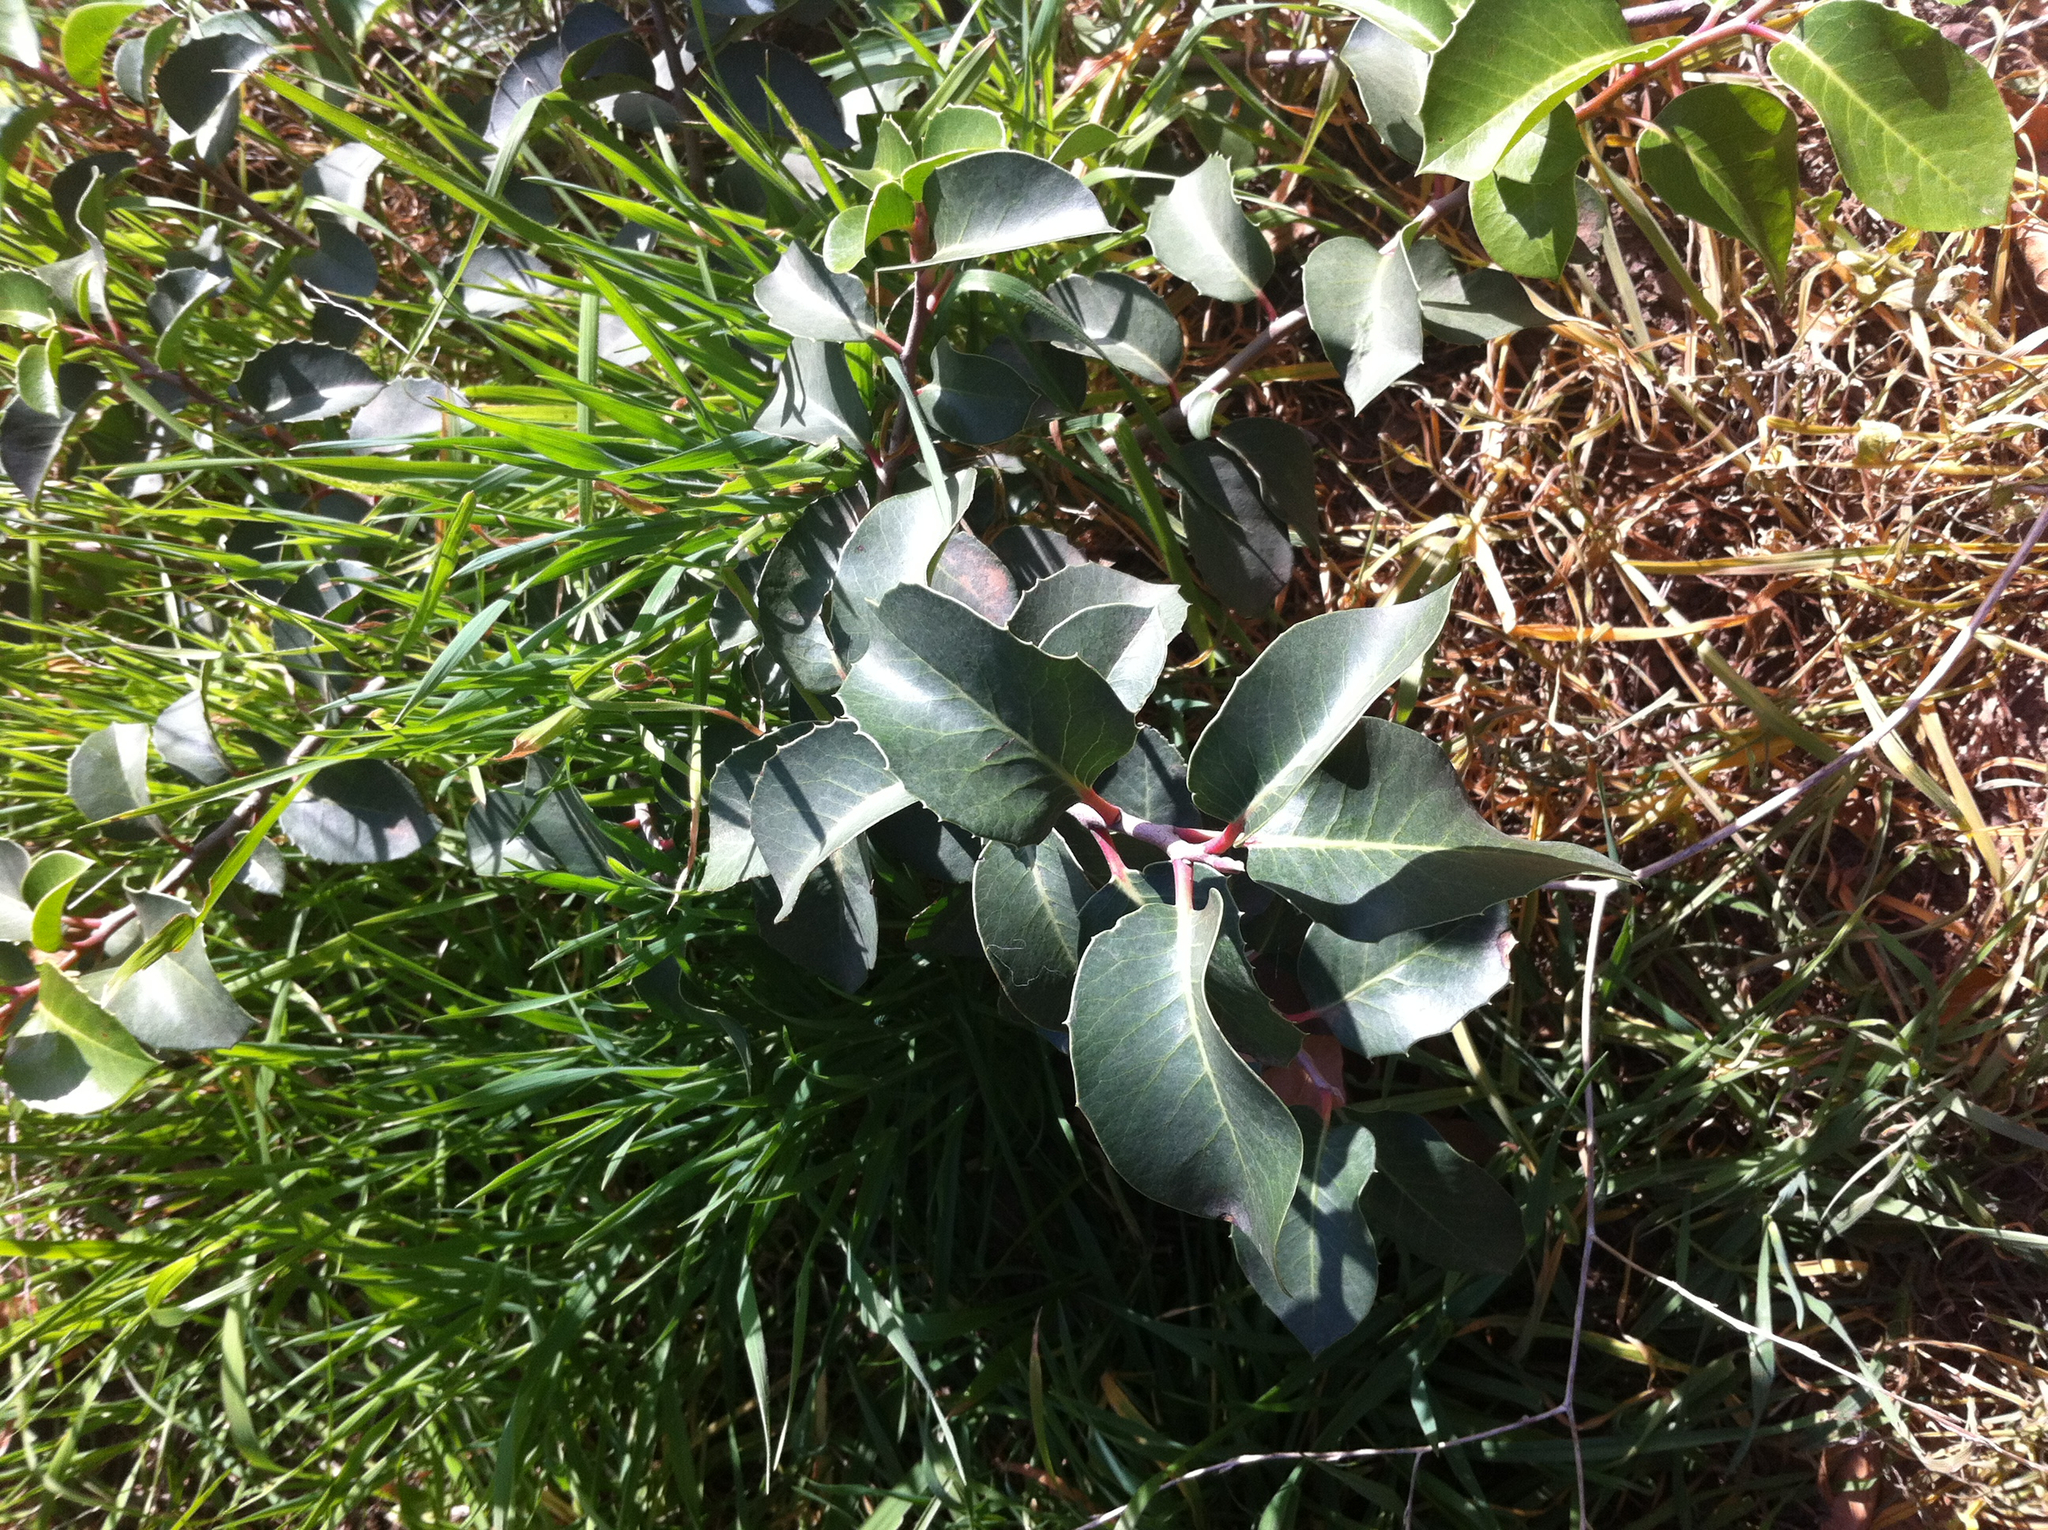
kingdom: Plantae
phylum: Tracheophyta
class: Magnoliopsida
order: Sapindales
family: Anacardiaceae
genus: Rhus
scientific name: Rhus ovata
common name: Sugar sumac
